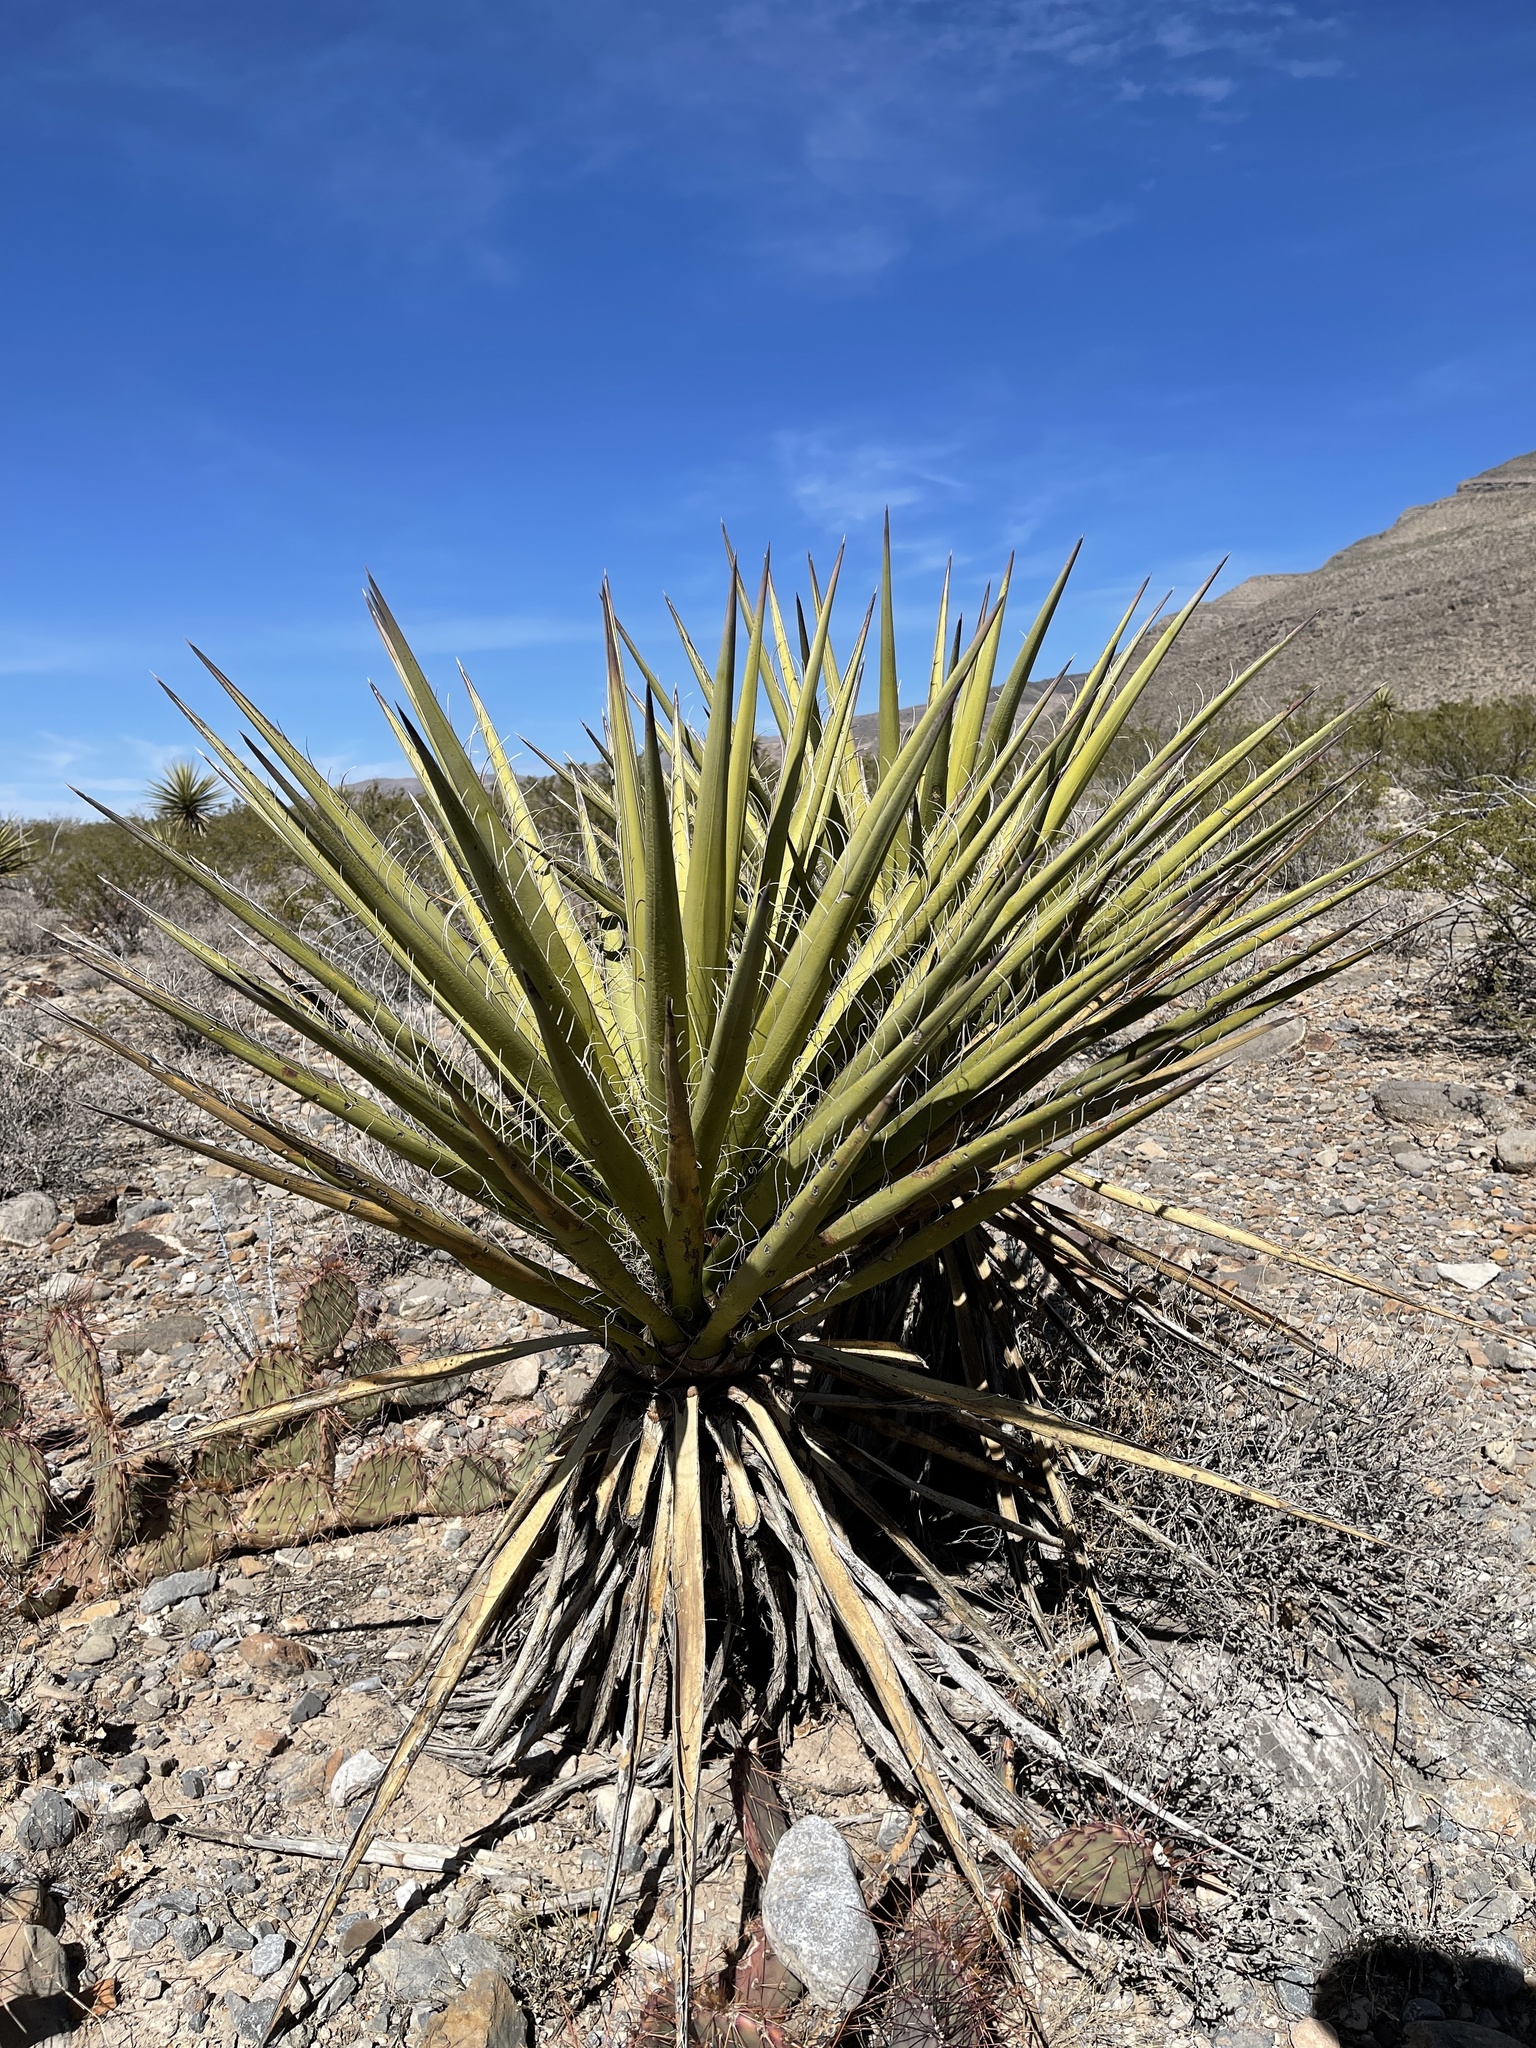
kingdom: Plantae
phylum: Tracheophyta
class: Liliopsida
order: Asparagales
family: Asparagaceae
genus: Yucca
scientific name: Yucca treculiana
